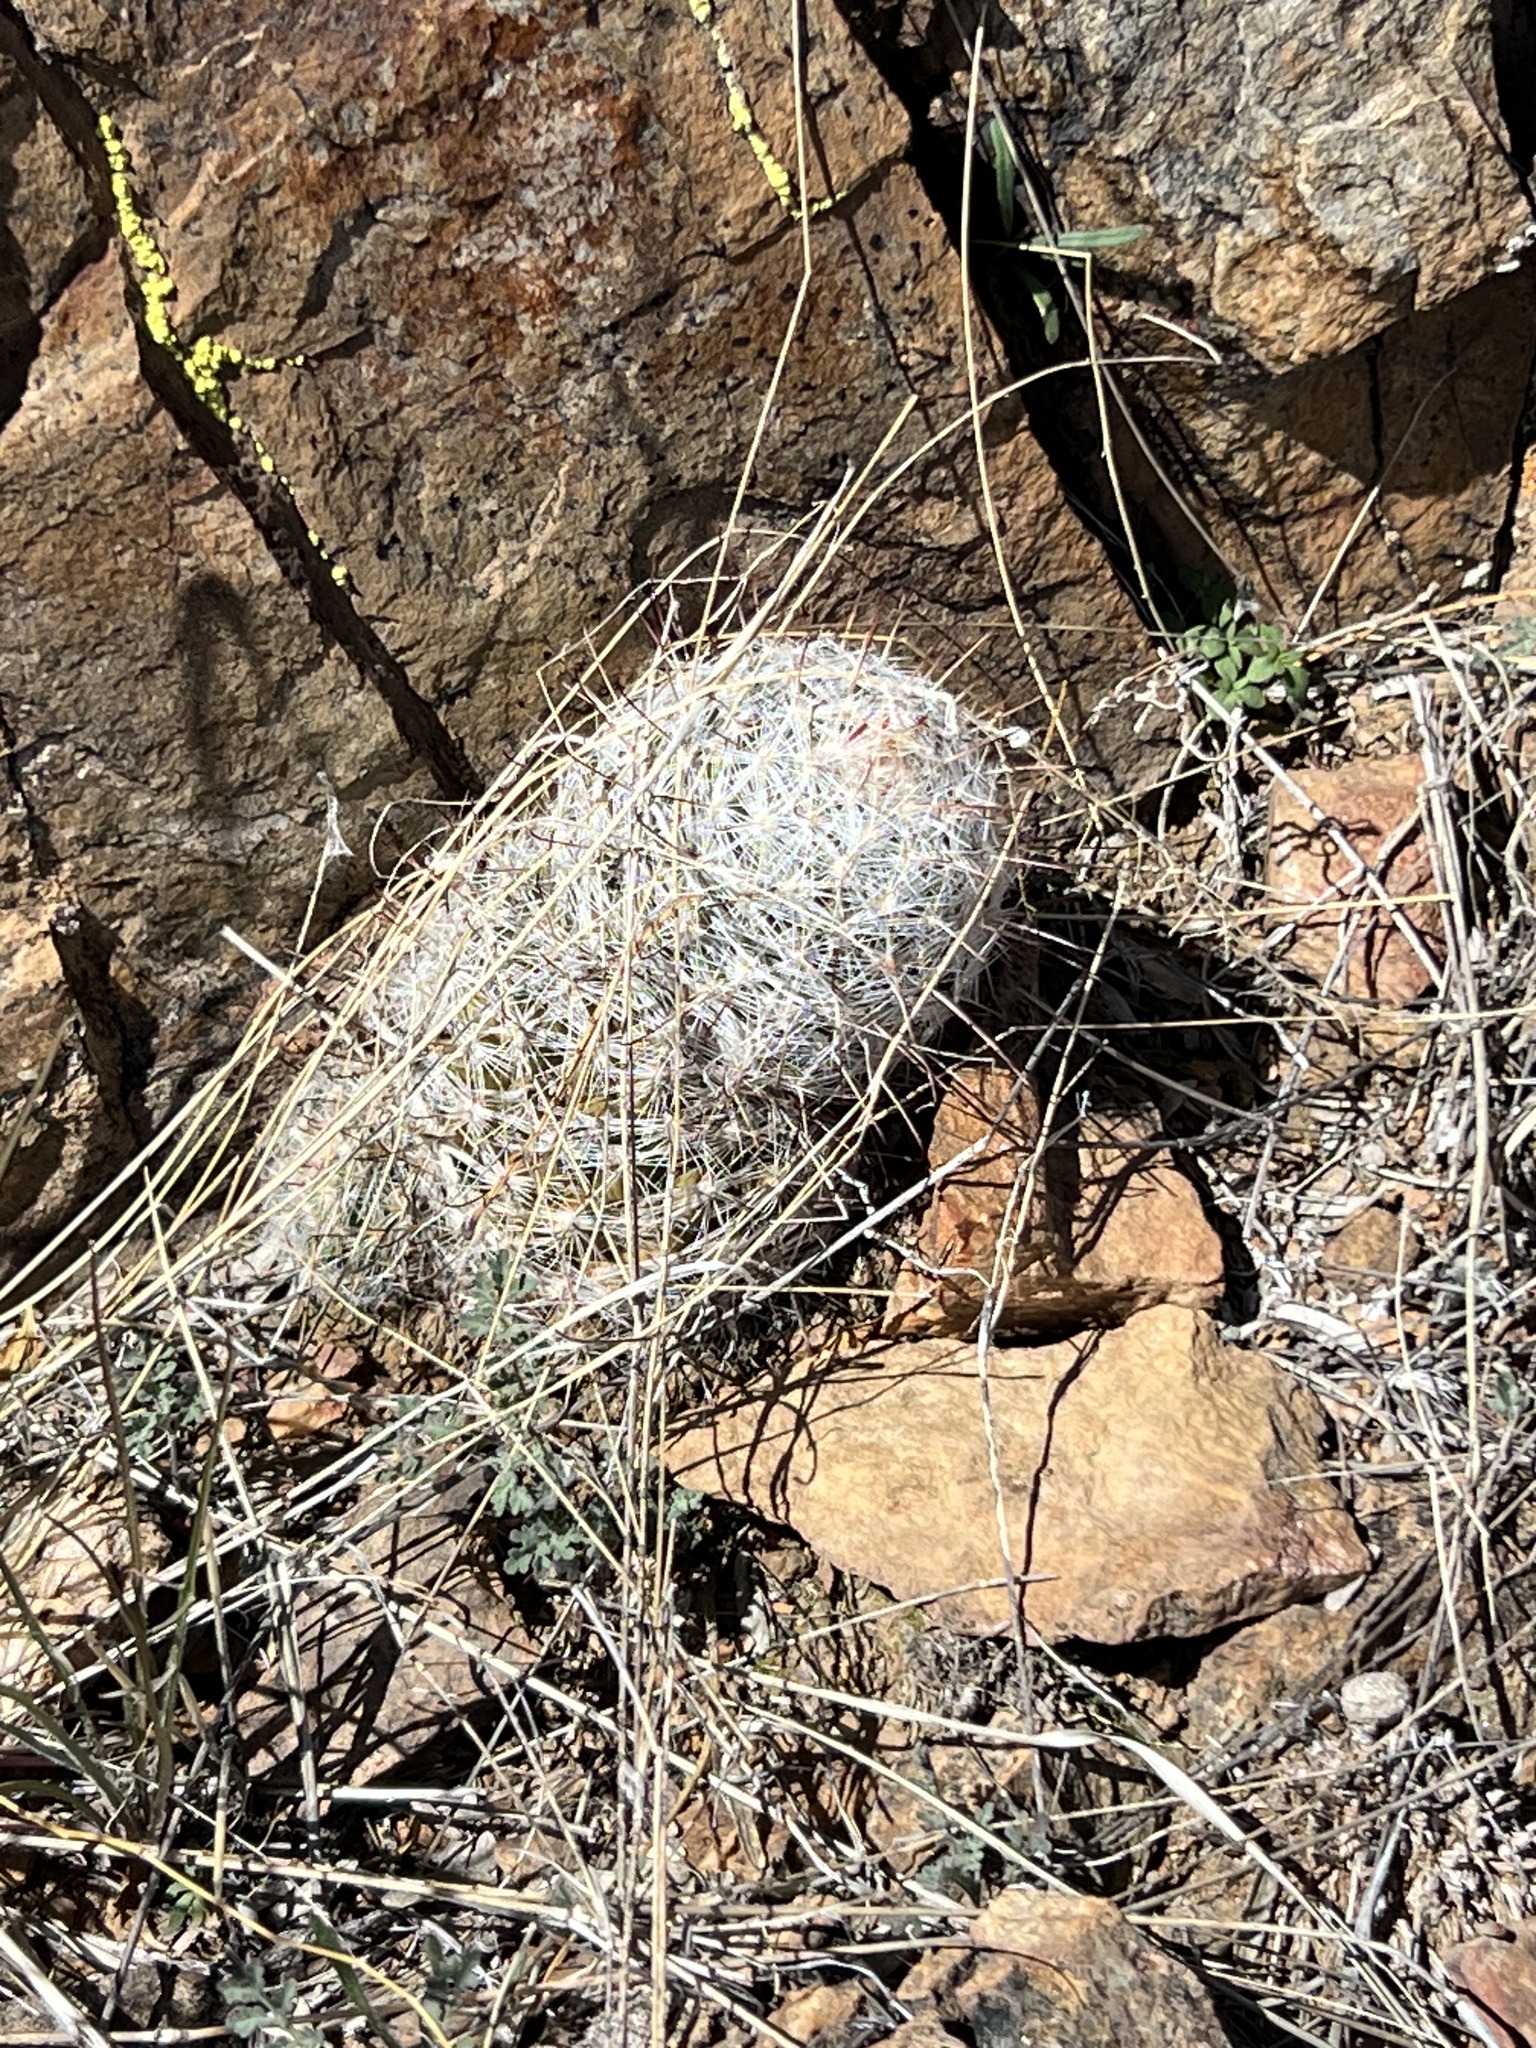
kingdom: Plantae
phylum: Tracheophyta
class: Magnoliopsida
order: Caryophyllales
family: Cactaceae
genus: Cochemiea
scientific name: Cochemiea grahamii
